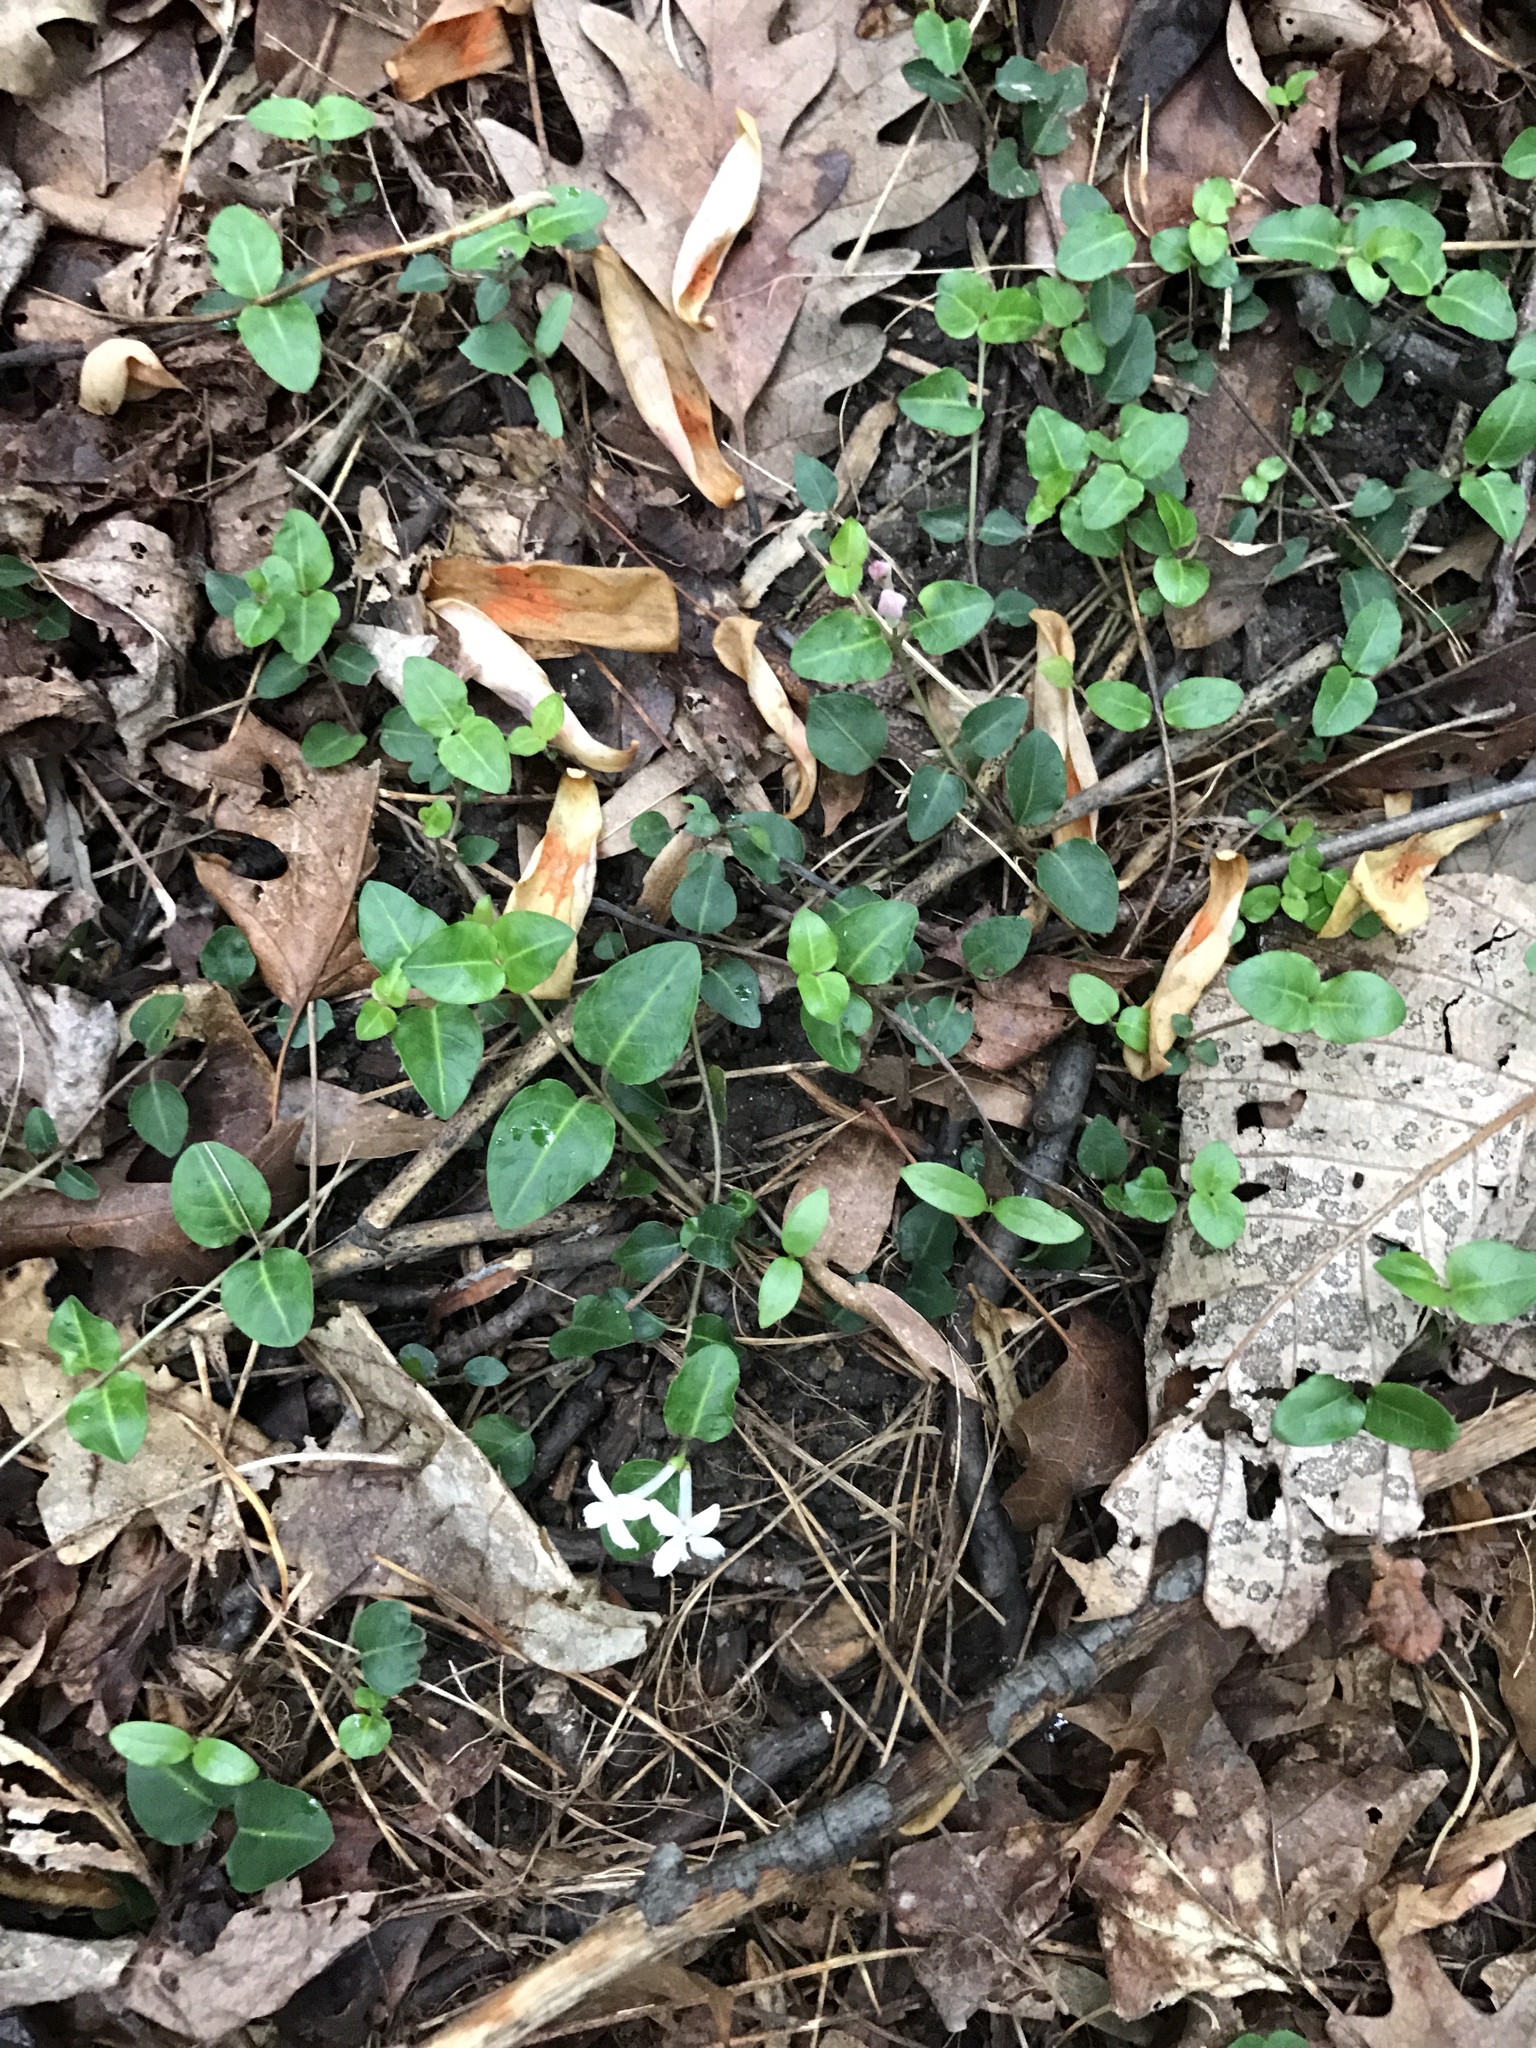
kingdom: Plantae
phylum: Tracheophyta
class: Magnoliopsida
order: Gentianales
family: Rubiaceae
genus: Mitchella
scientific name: Mitchella repens
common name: Partridge-berry
